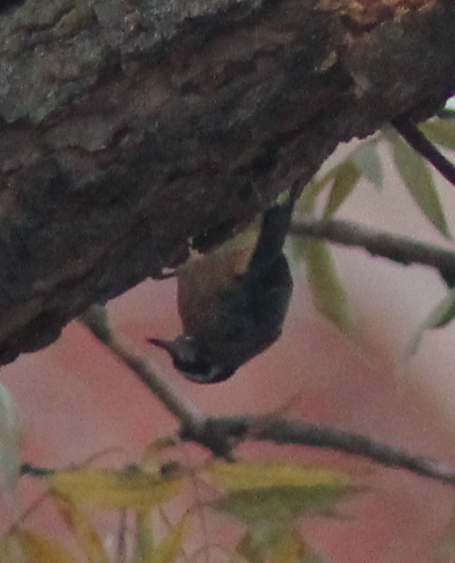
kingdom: Animalia
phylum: Chordata
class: Aves
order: Passeriformes
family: Sittidae
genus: Sitta
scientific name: Sitta canadensis
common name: Red-breasted nuthatch
